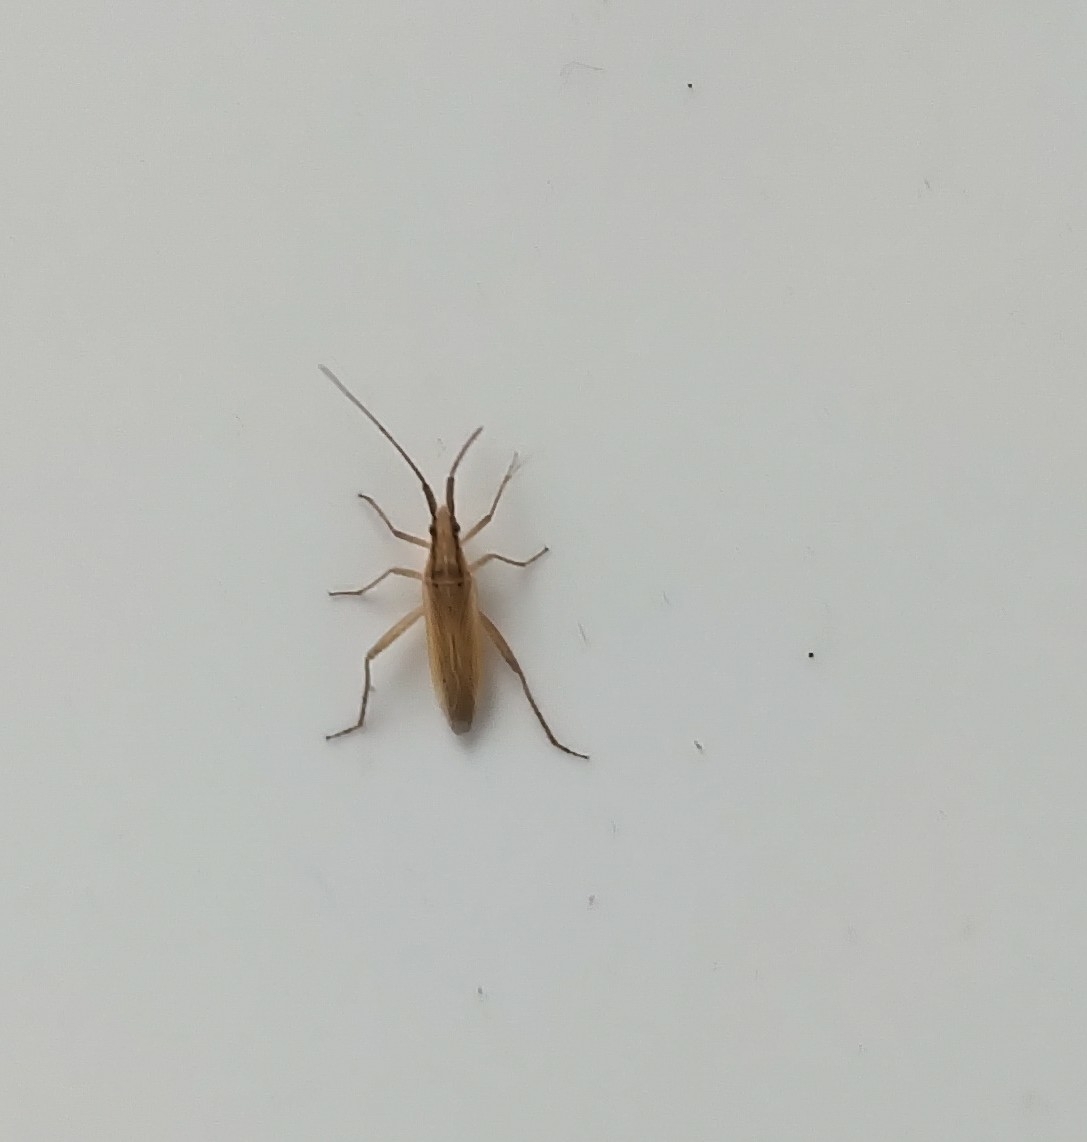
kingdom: Animalia
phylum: Arthropoda
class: Insecta
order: Hemiptera
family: Miridae
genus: Stenodema
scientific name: Stenodema laevigata
